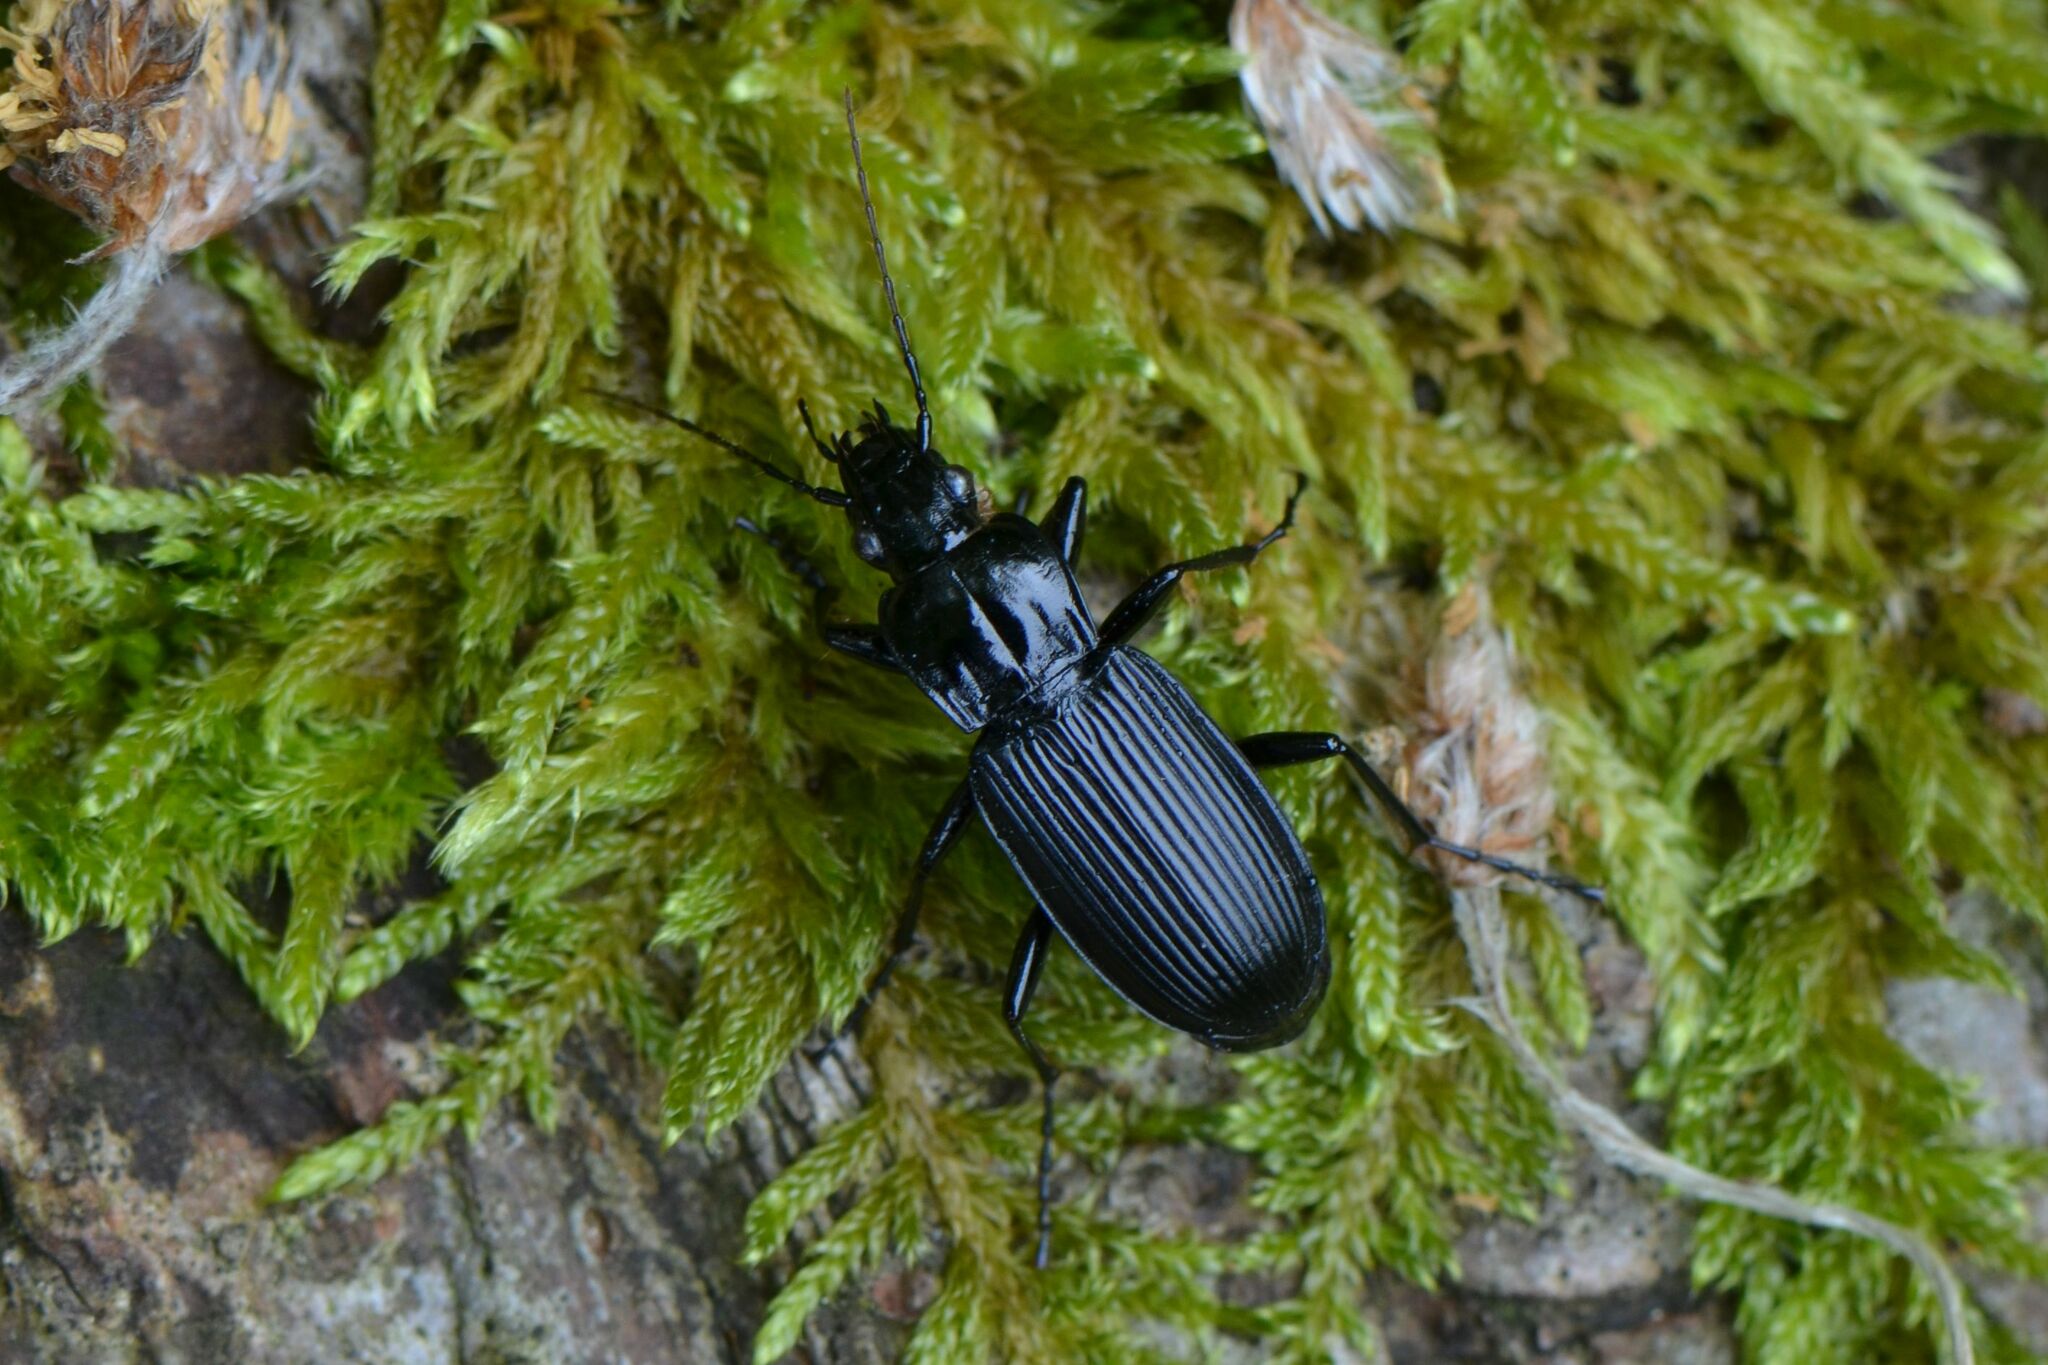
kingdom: Animalia
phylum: Arthropoda
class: Insecta
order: Coleoptera
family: Carabidae
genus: Pterostichus
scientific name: Pterostichus niger
